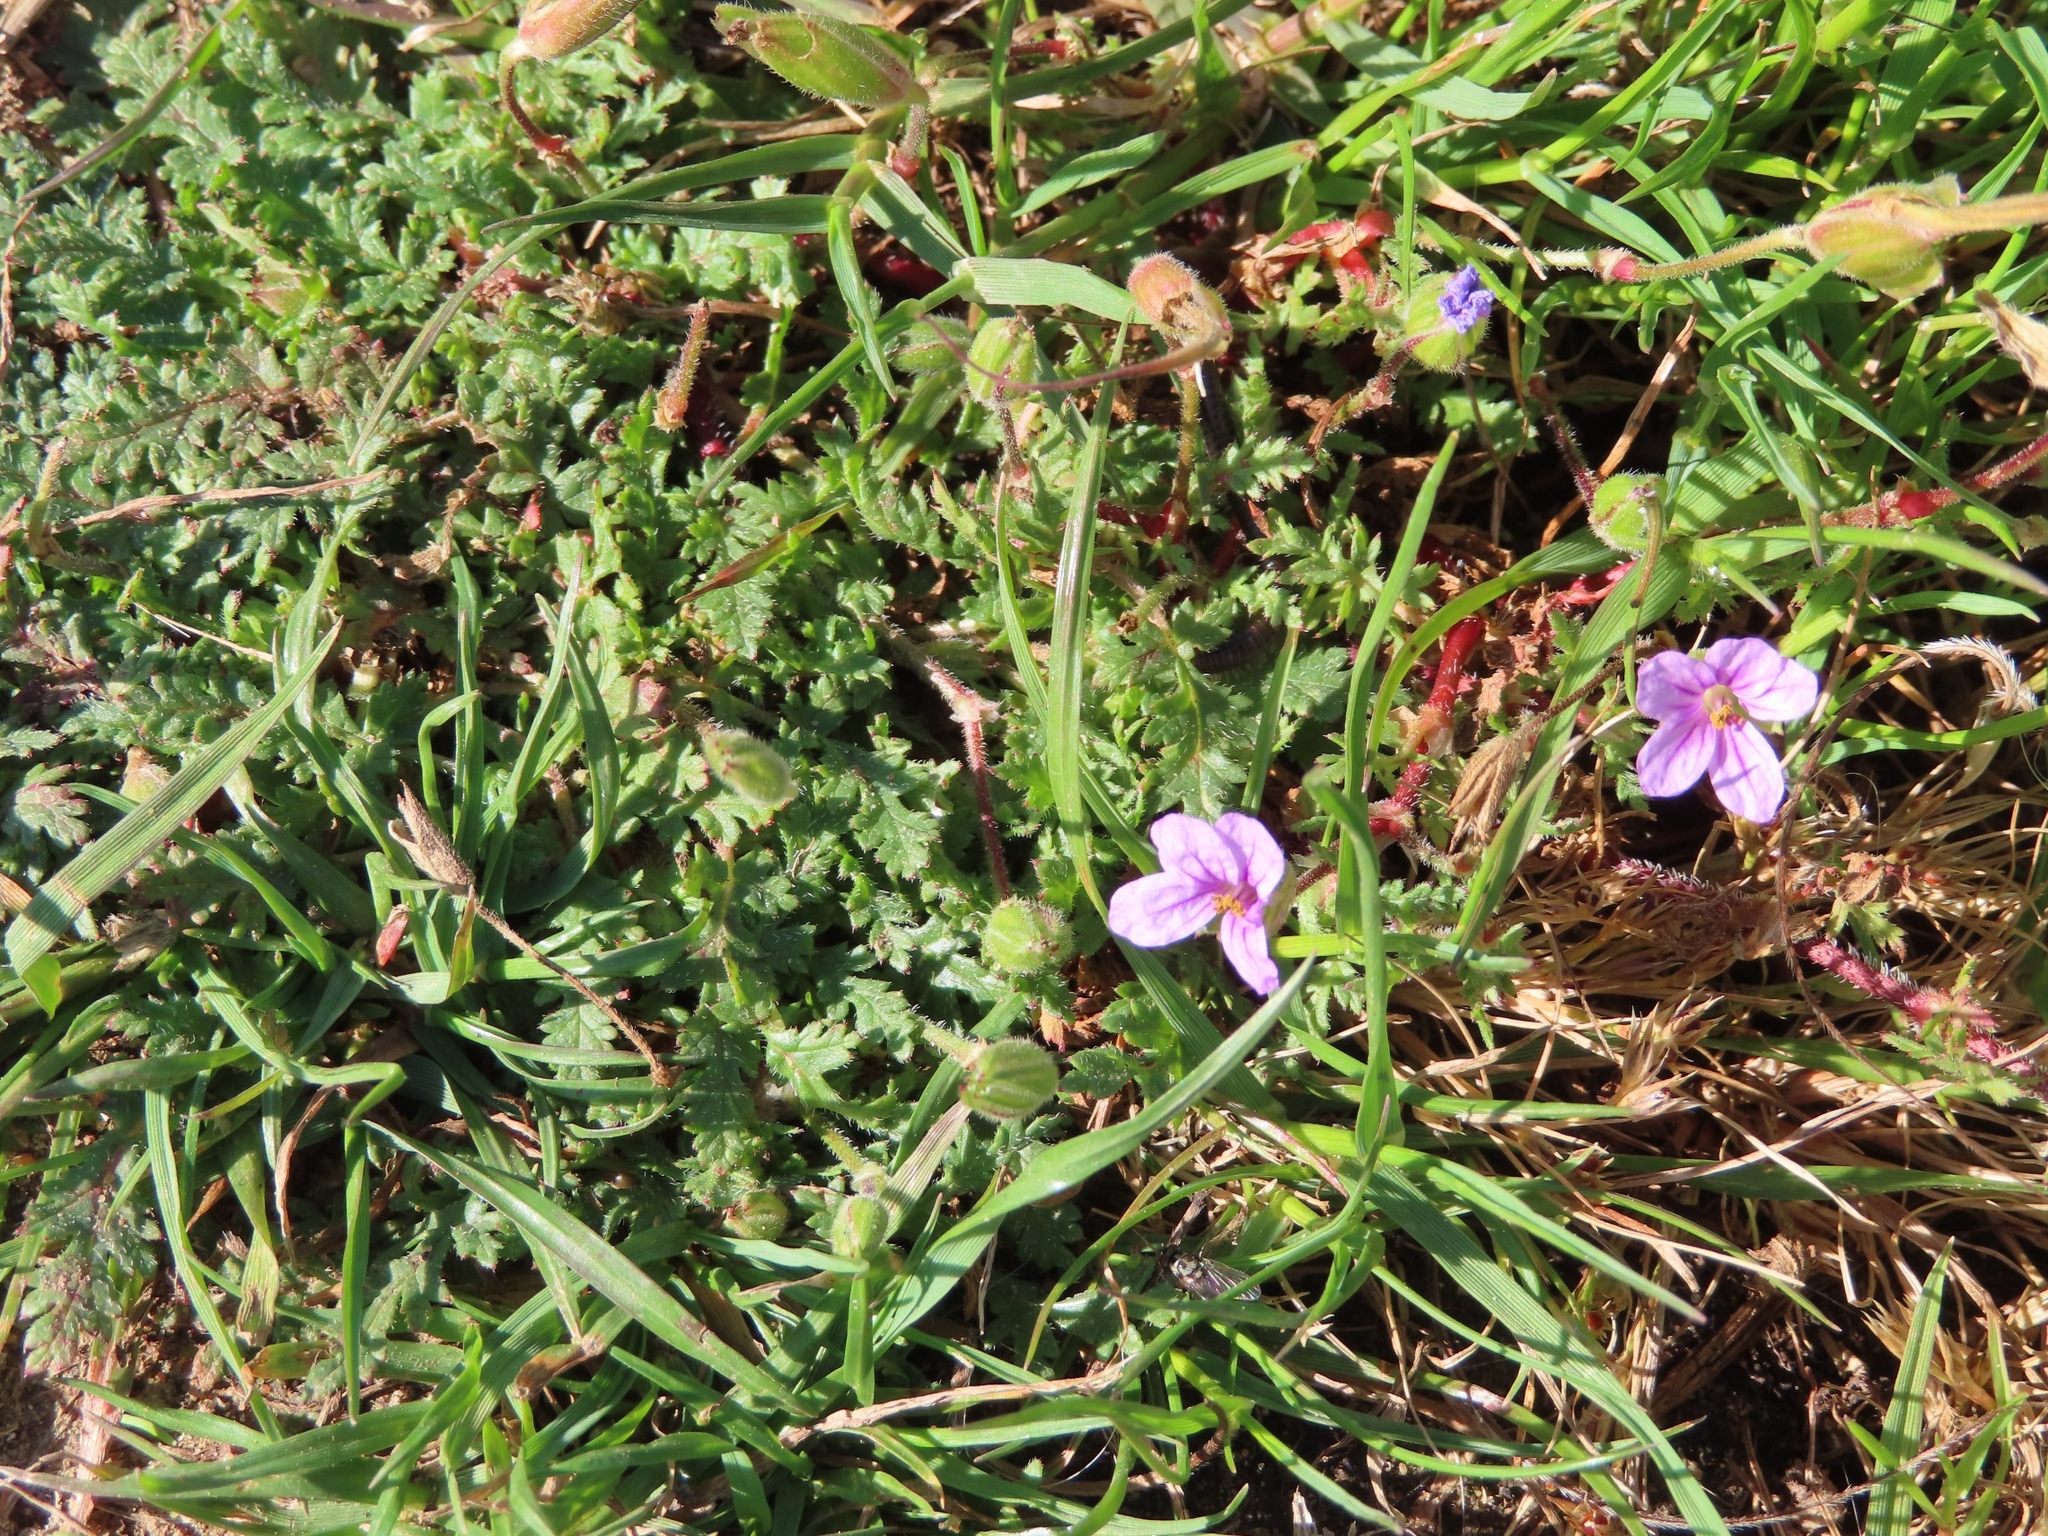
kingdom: Plantae
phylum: Tracheophyta
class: Magnoliopsida
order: Geraniales
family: Geraniaceae
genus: Erodium
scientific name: Erodium botrys
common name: Mediterranean stork's-bill
